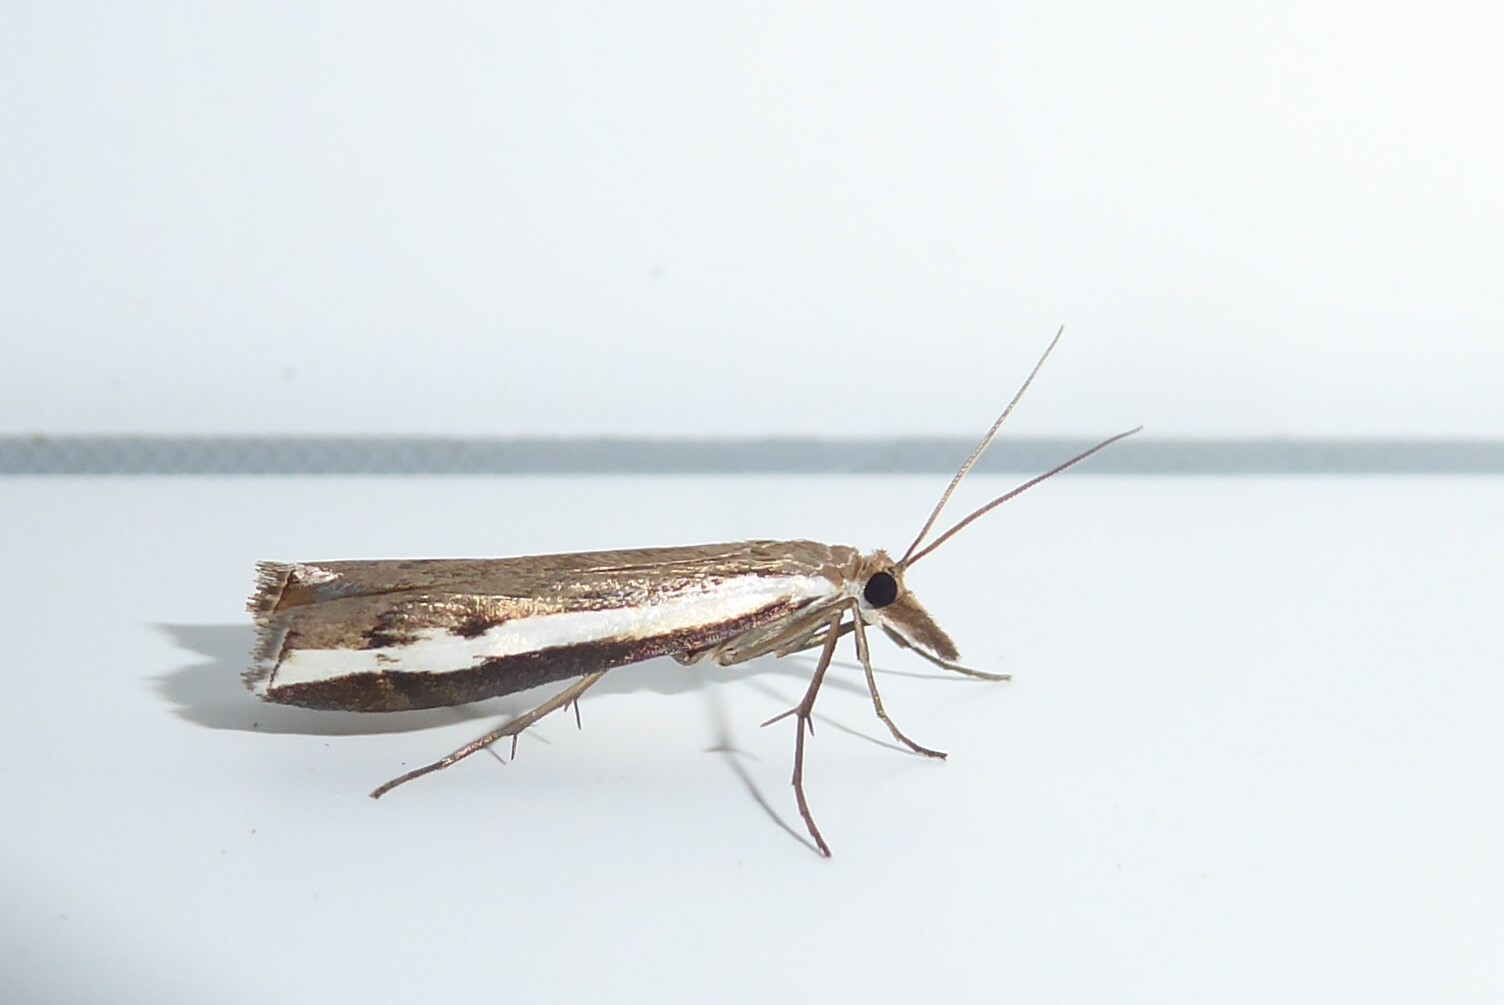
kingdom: Animalia
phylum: Arthropoda
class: Insecta
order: Lepidoptera
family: Crambidae
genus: Orocrambus
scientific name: Orocrambus flexuosellus
